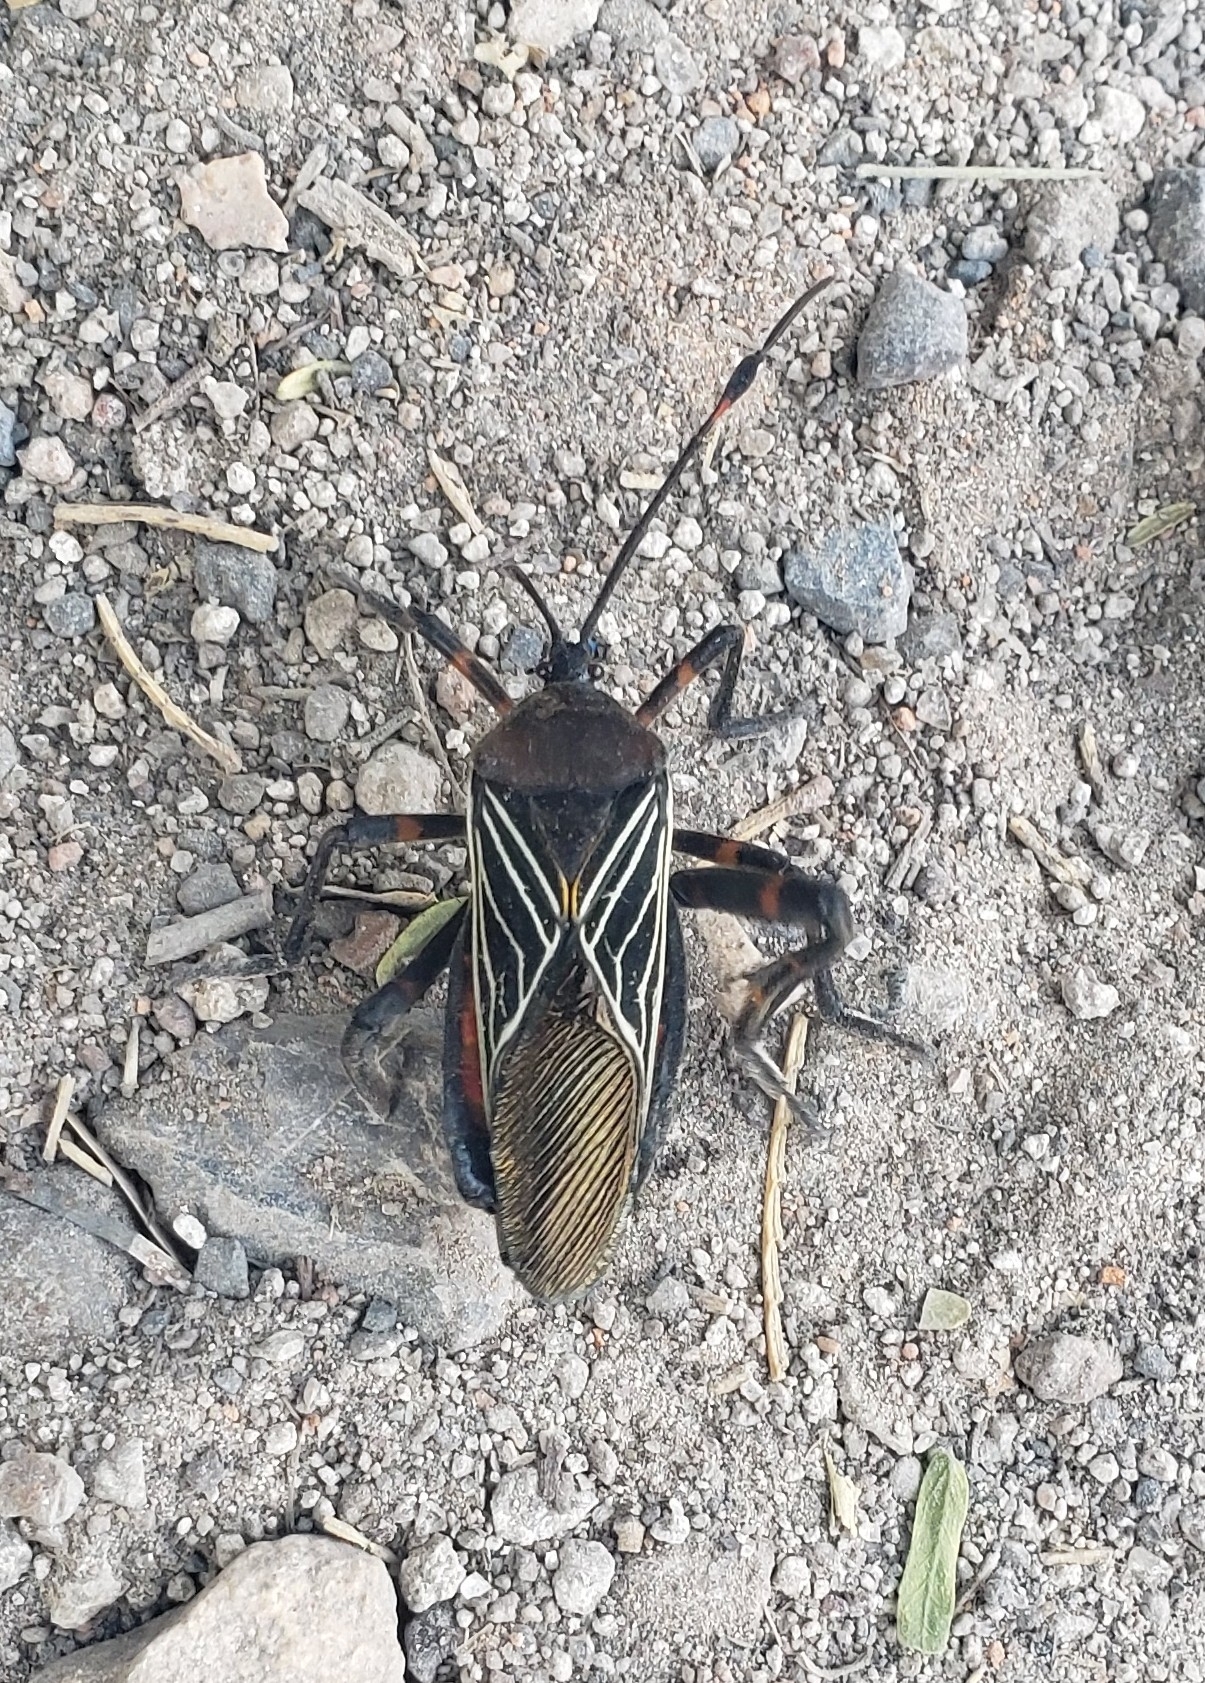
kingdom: Animalia
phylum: Arthropoda
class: Insecta
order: Hemiptera
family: Coreidae
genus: Thasus
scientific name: Thasus
